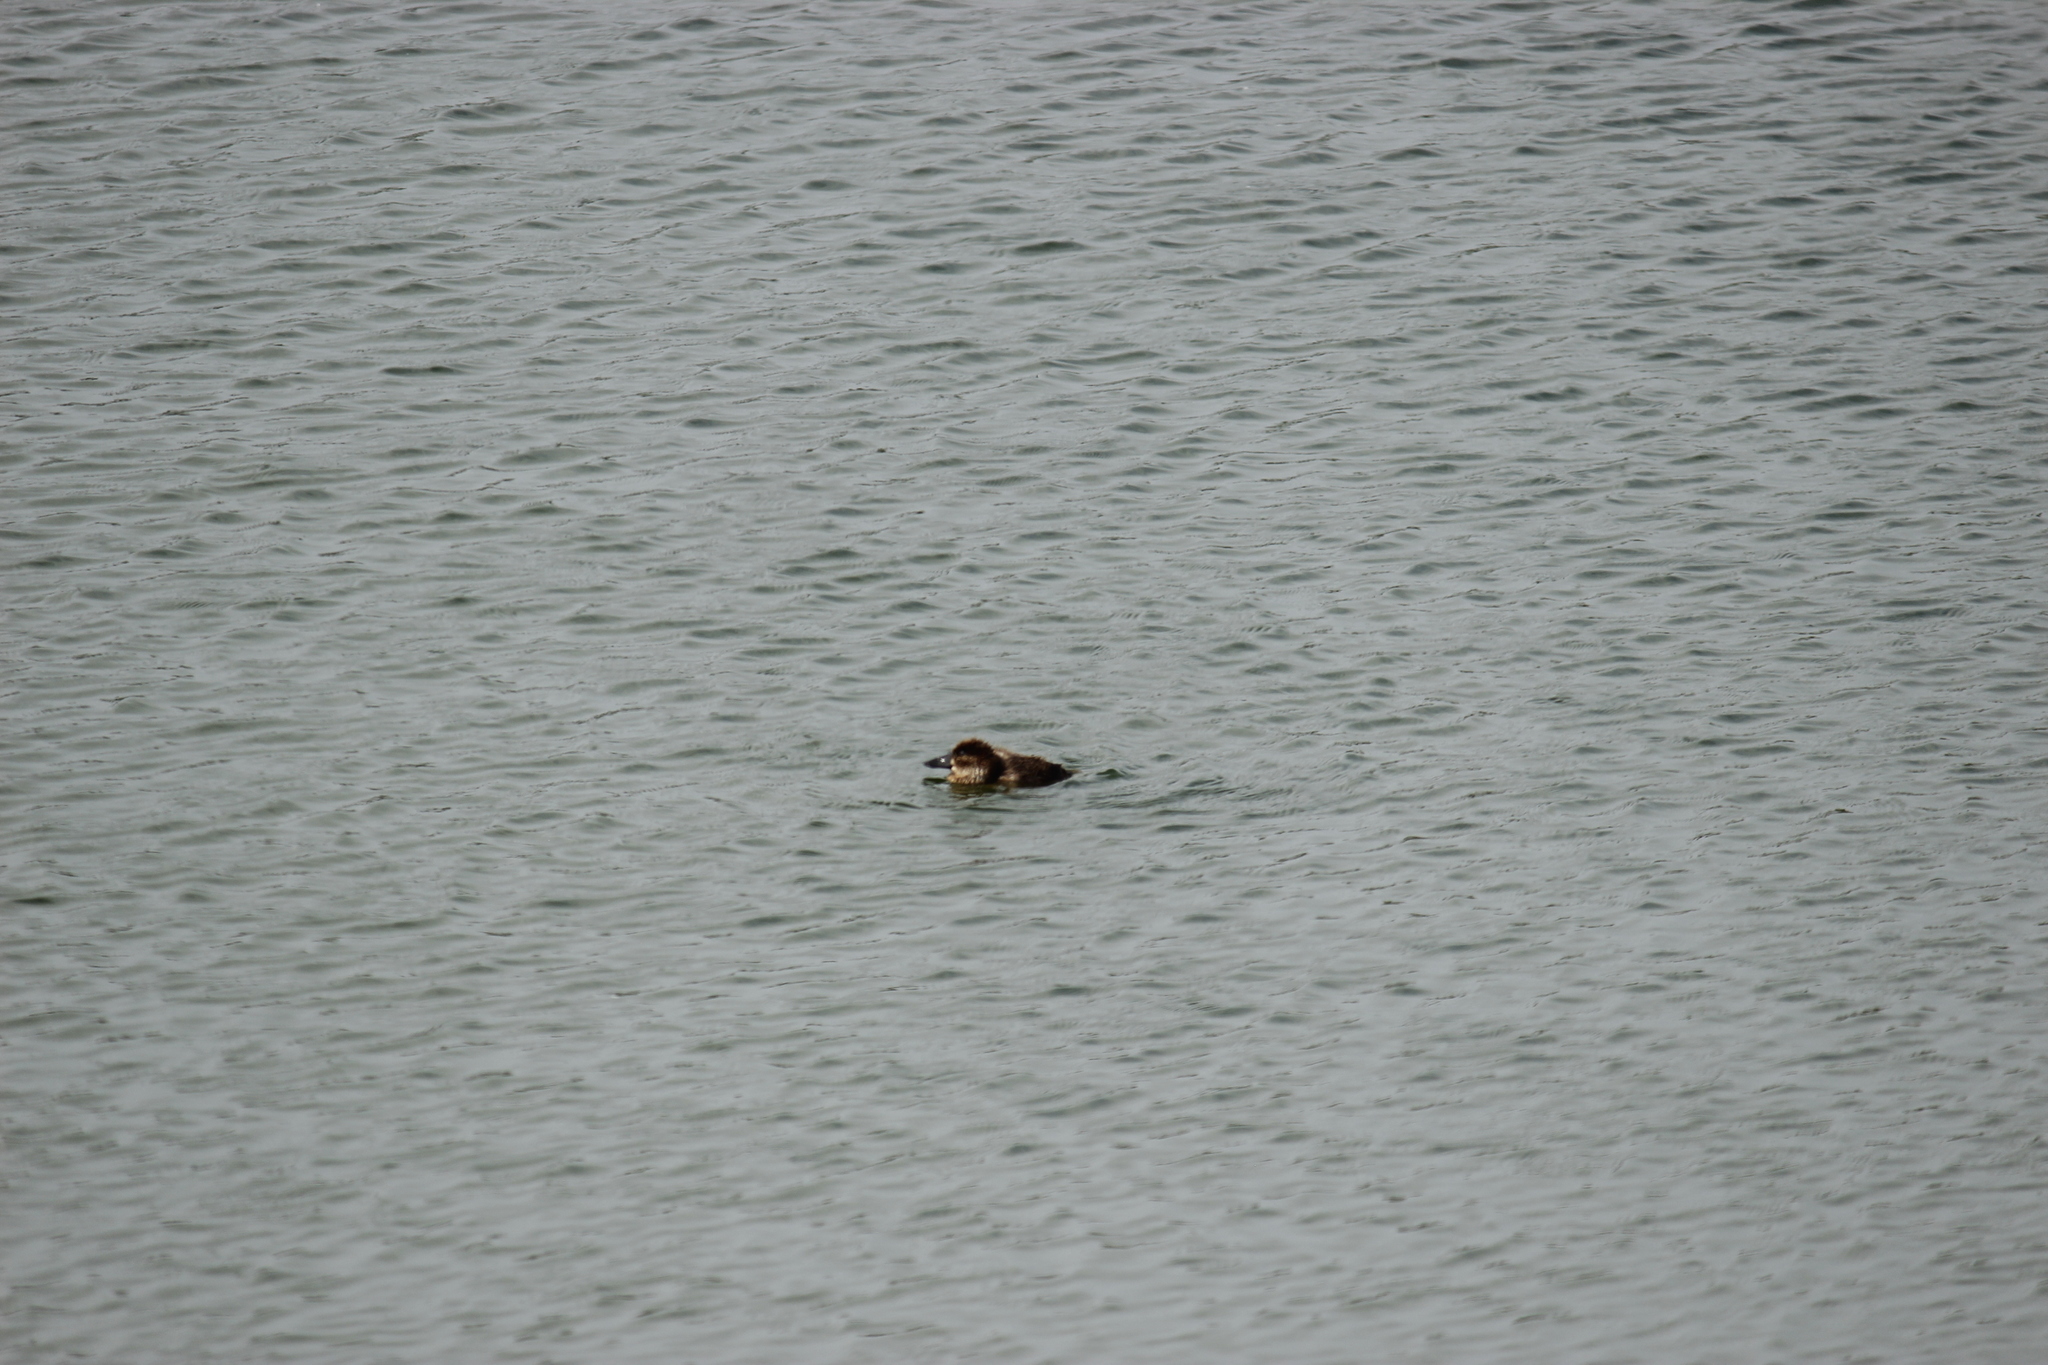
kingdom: Animalia
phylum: Chordata
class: Aves
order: Anseriformes
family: Anatidae
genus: Oxyura
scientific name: Oxyura ferruginea
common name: Andean duck
